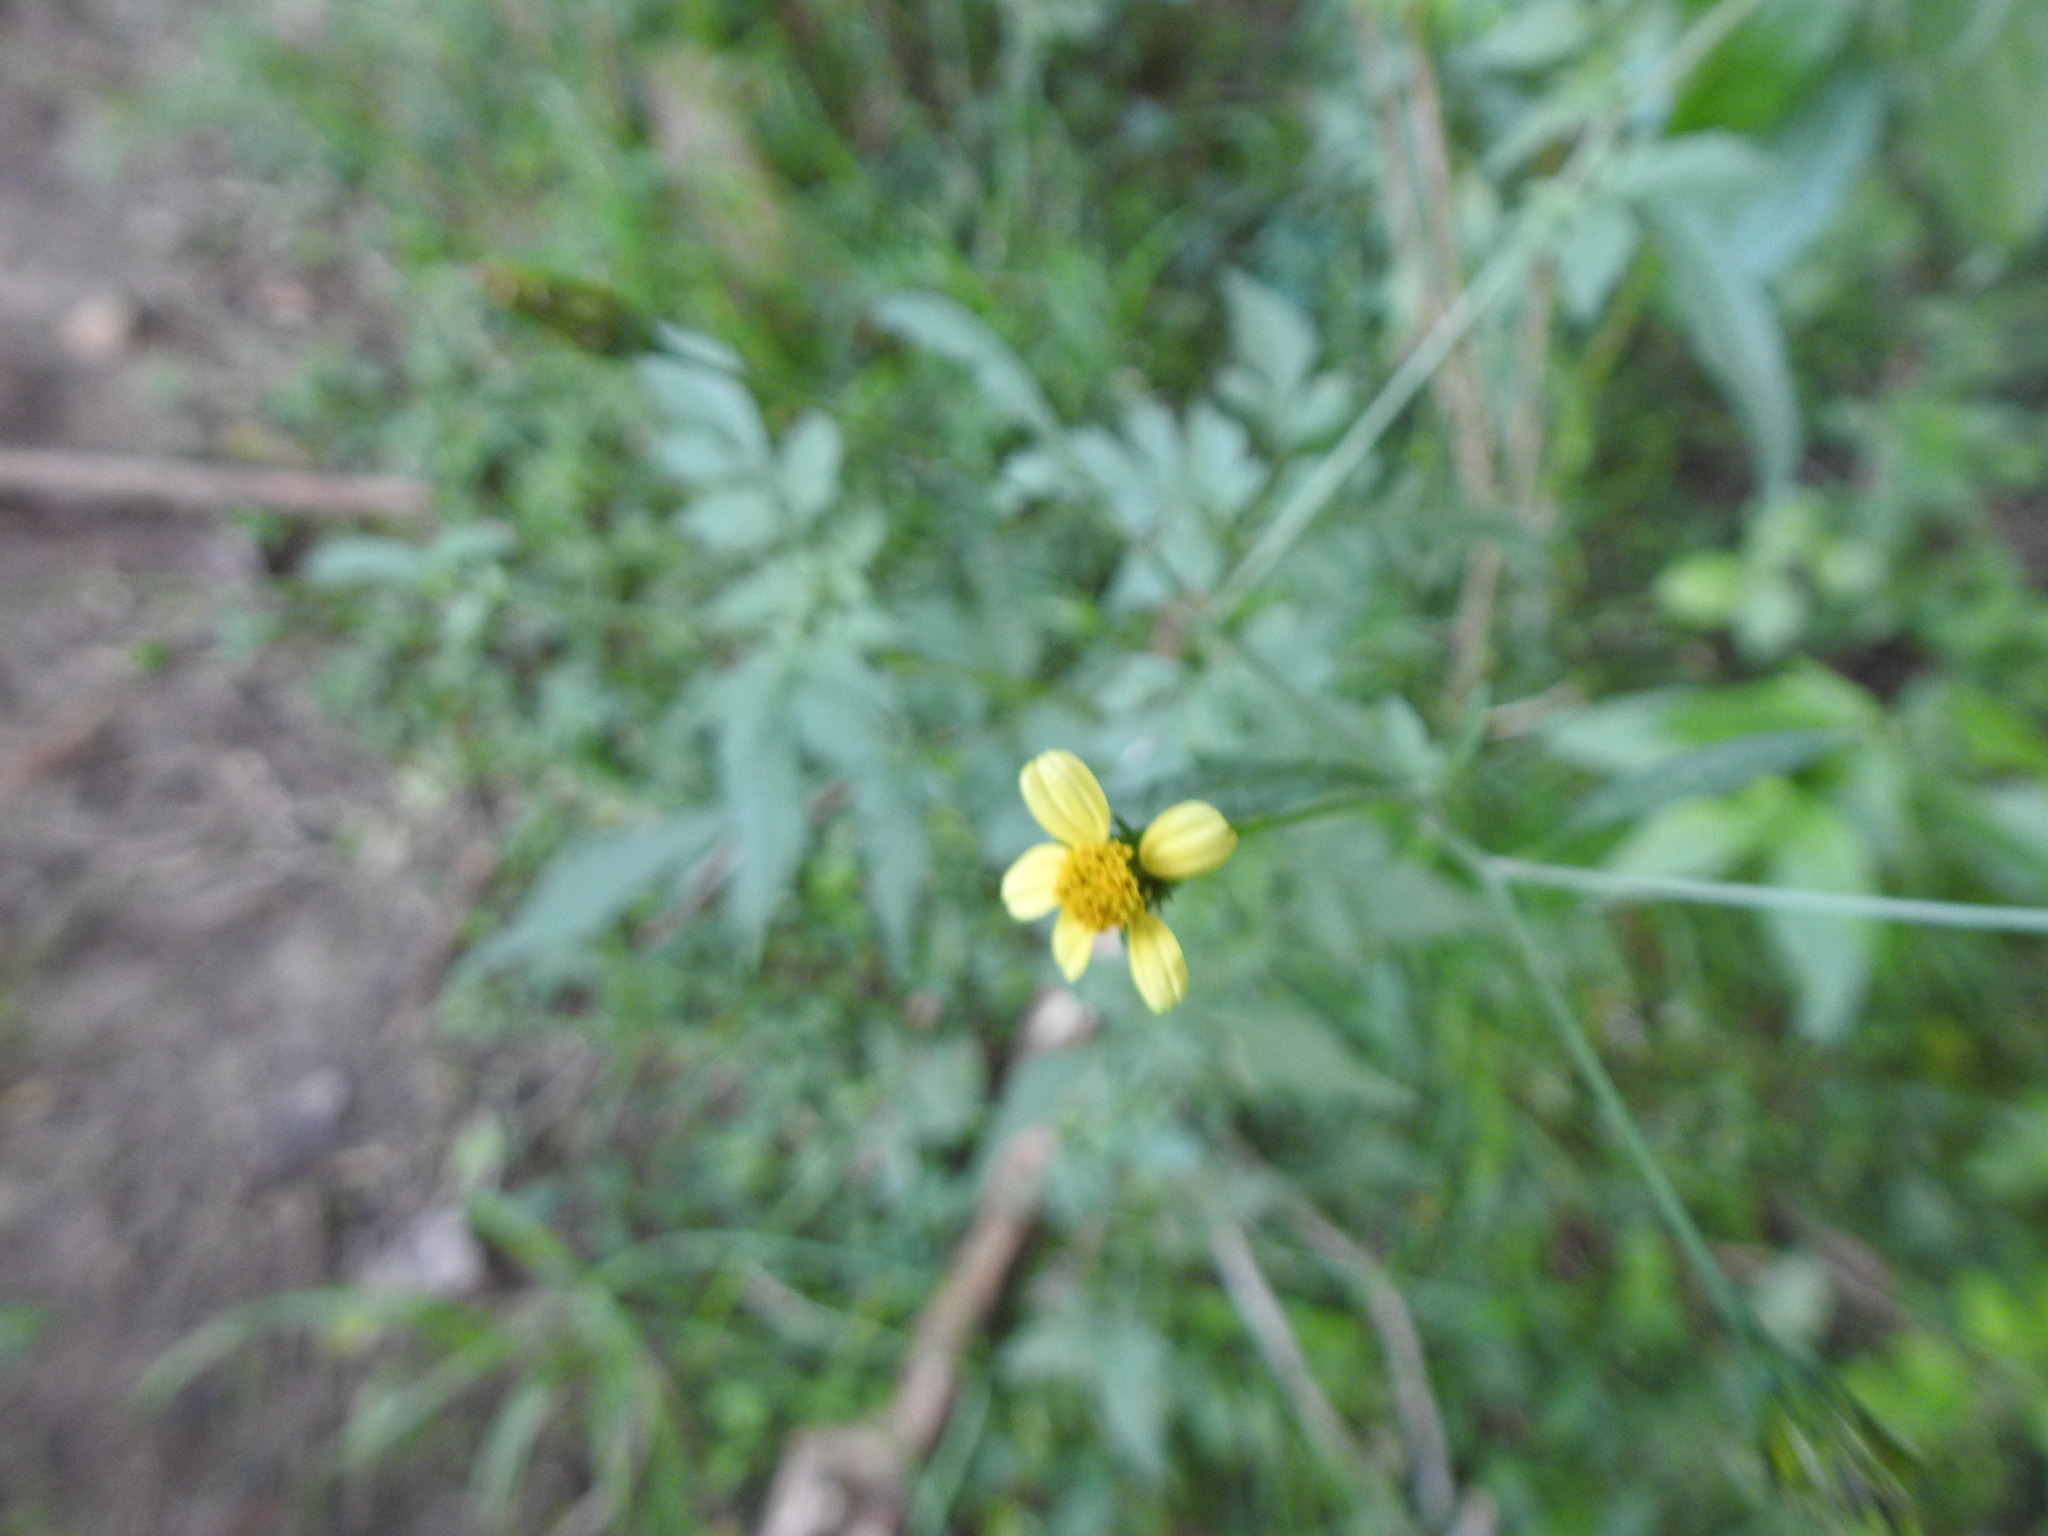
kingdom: Plantae
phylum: Tracheophyta
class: Magnoliopsida
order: Asterales
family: Asteraceae
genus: Bidens
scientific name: Bidens subalternans
